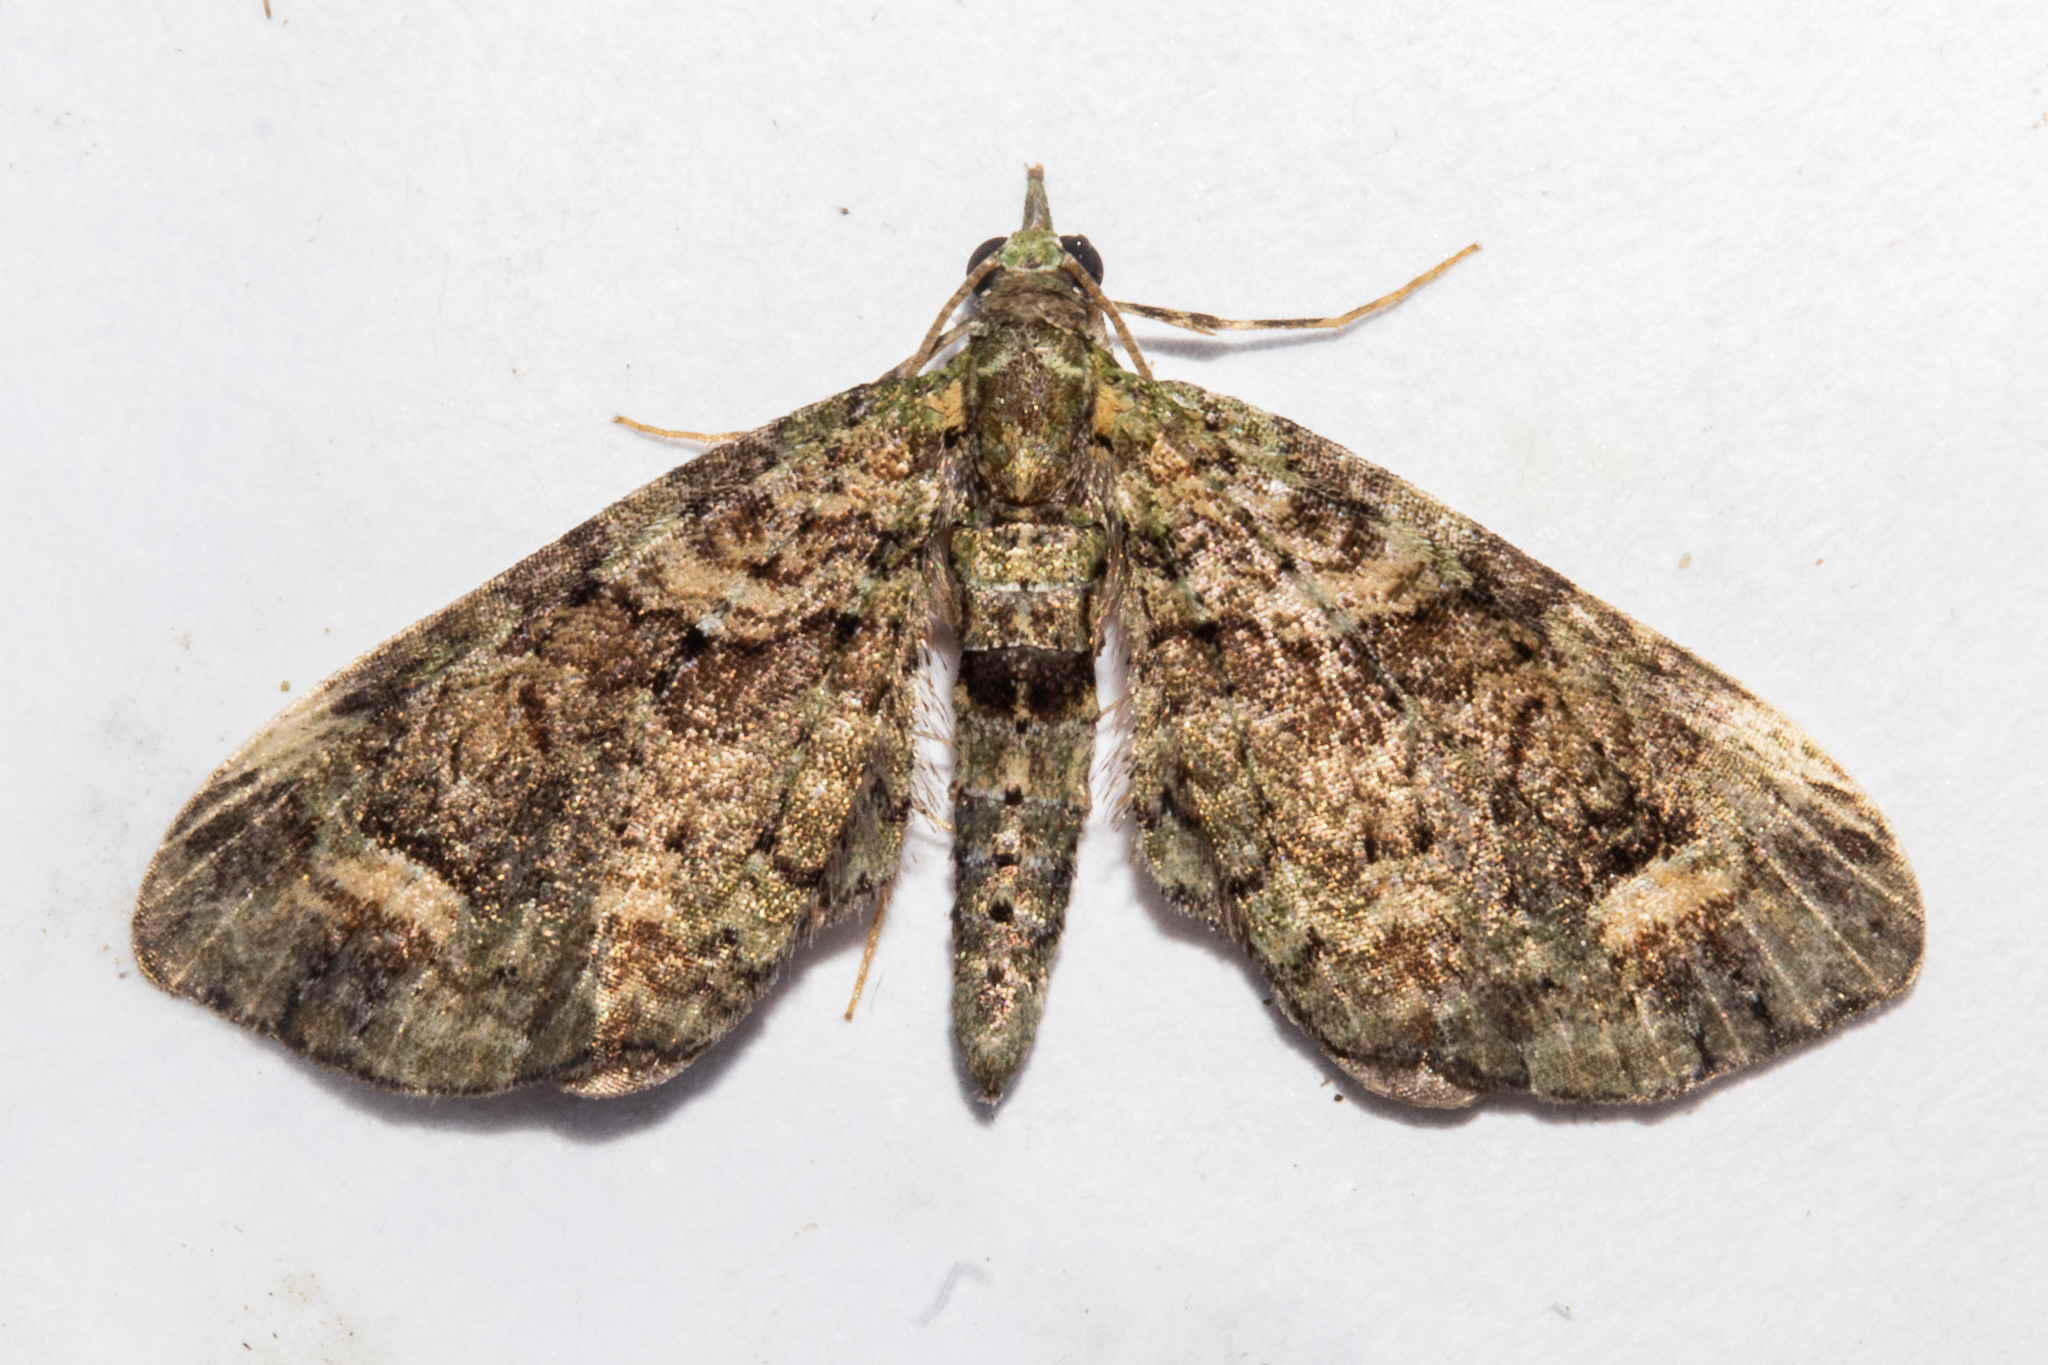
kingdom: Animalia
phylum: Arthropoda
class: Insecta
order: Lepidoptera
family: Geometridae
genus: Idaea
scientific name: Idaea mutanda
